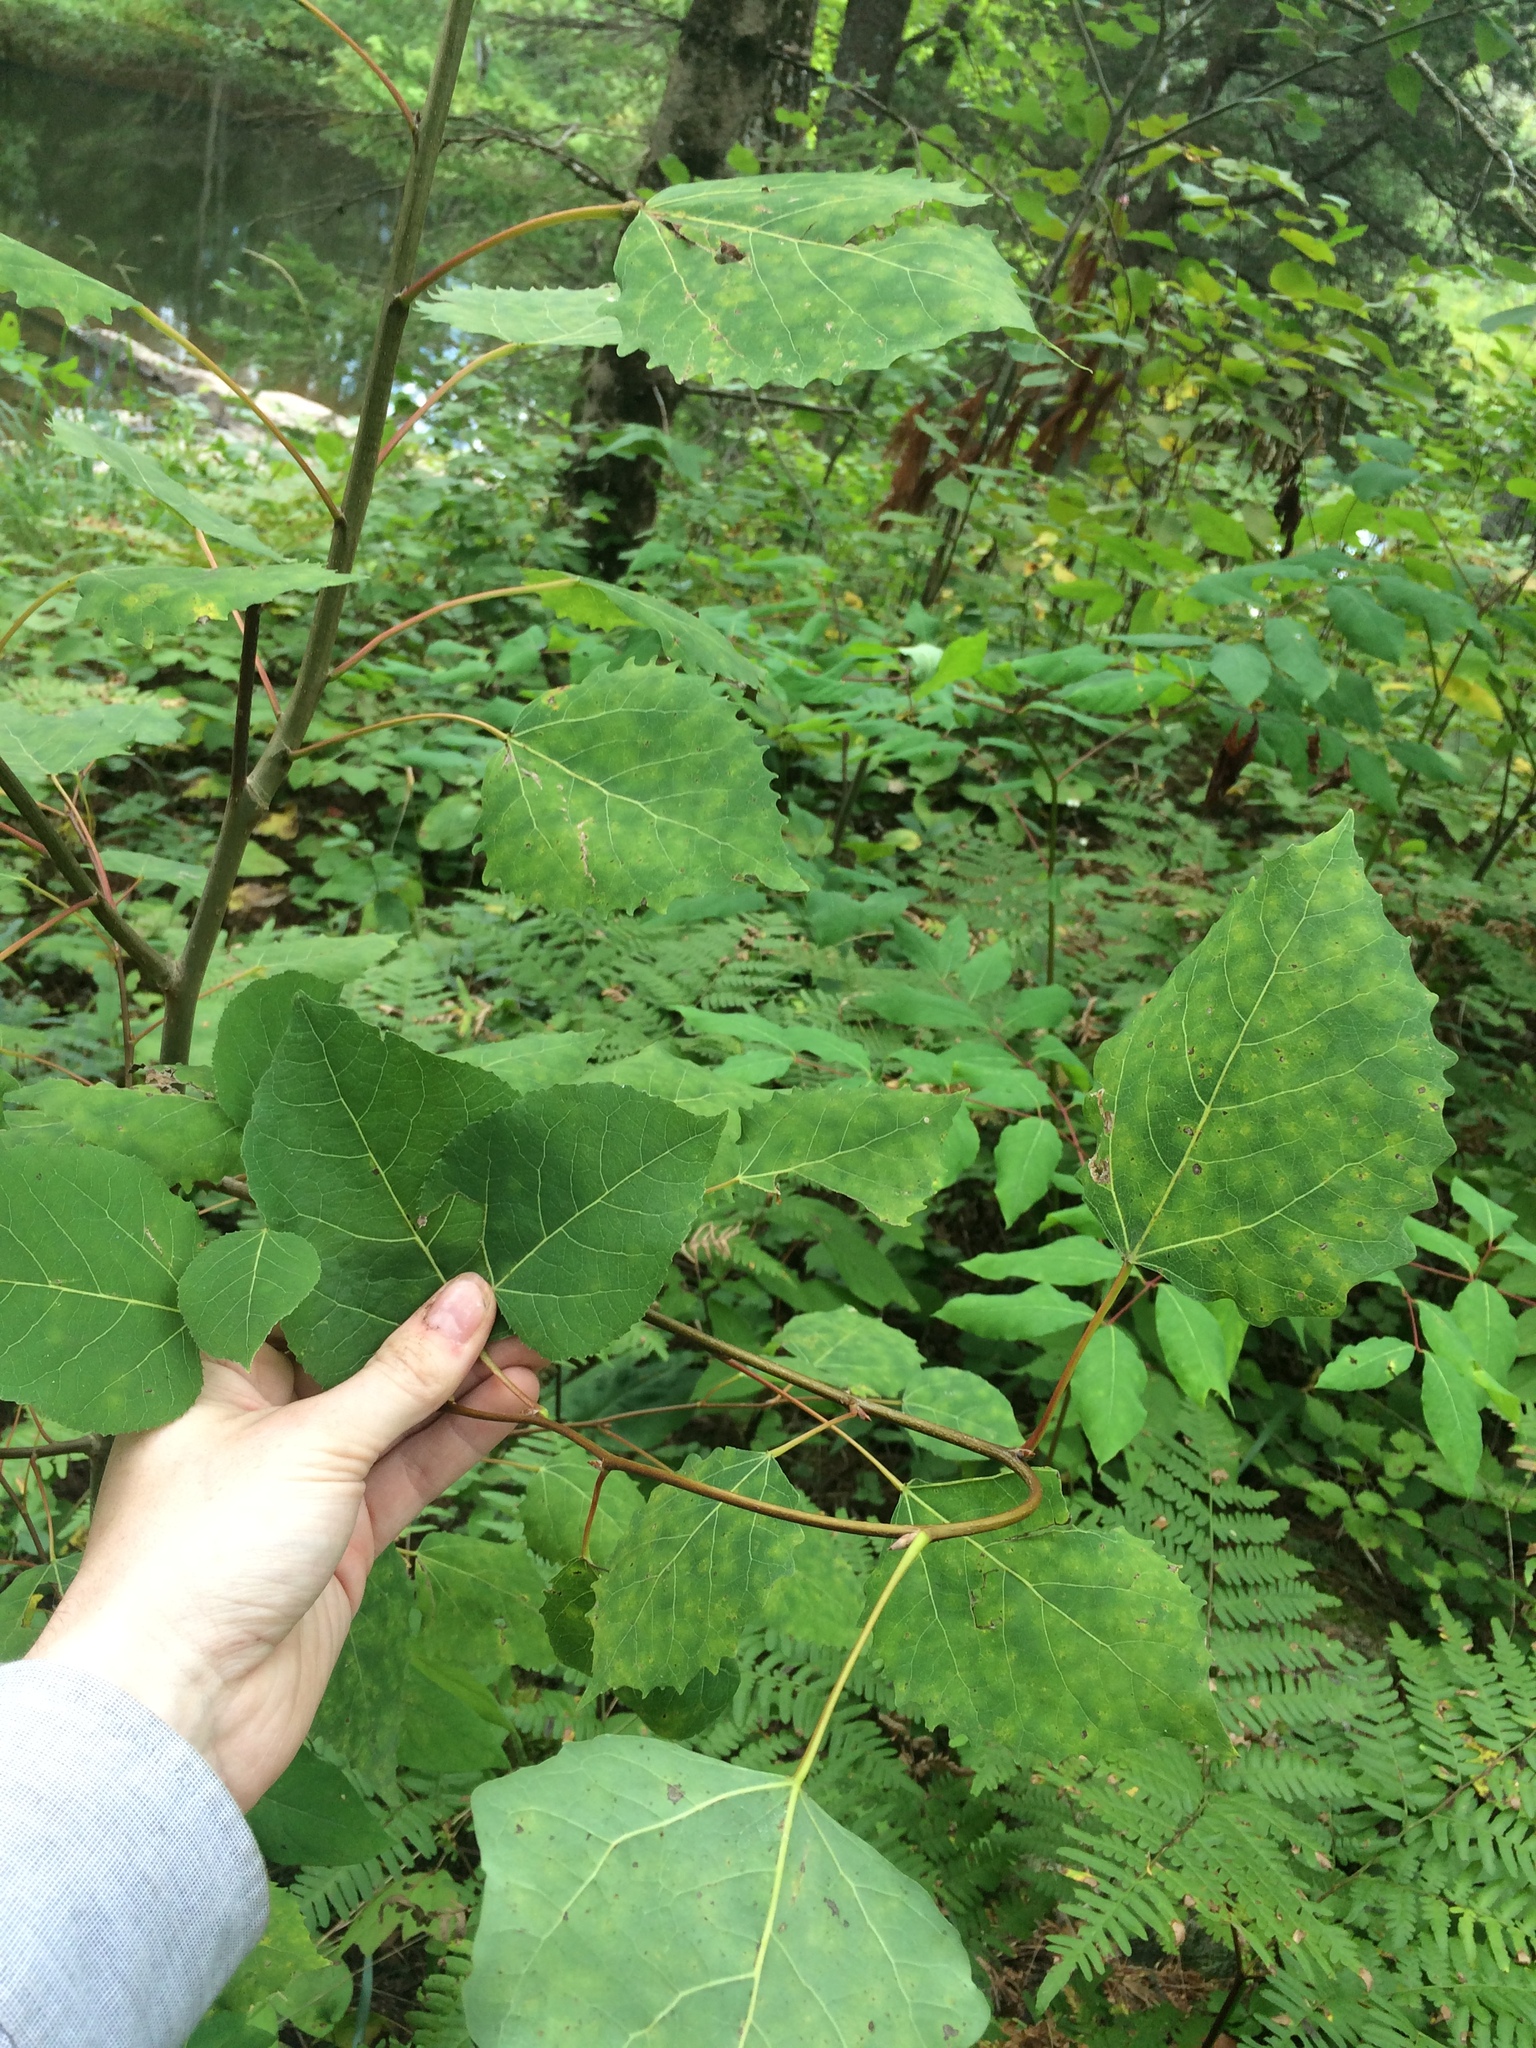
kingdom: Plantae
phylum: Tracheophyta
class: Magnoliopsida
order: Malpighiales
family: Salicaceae
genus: Populus
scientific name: Populus grandidentata
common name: Bigtooth aspen
